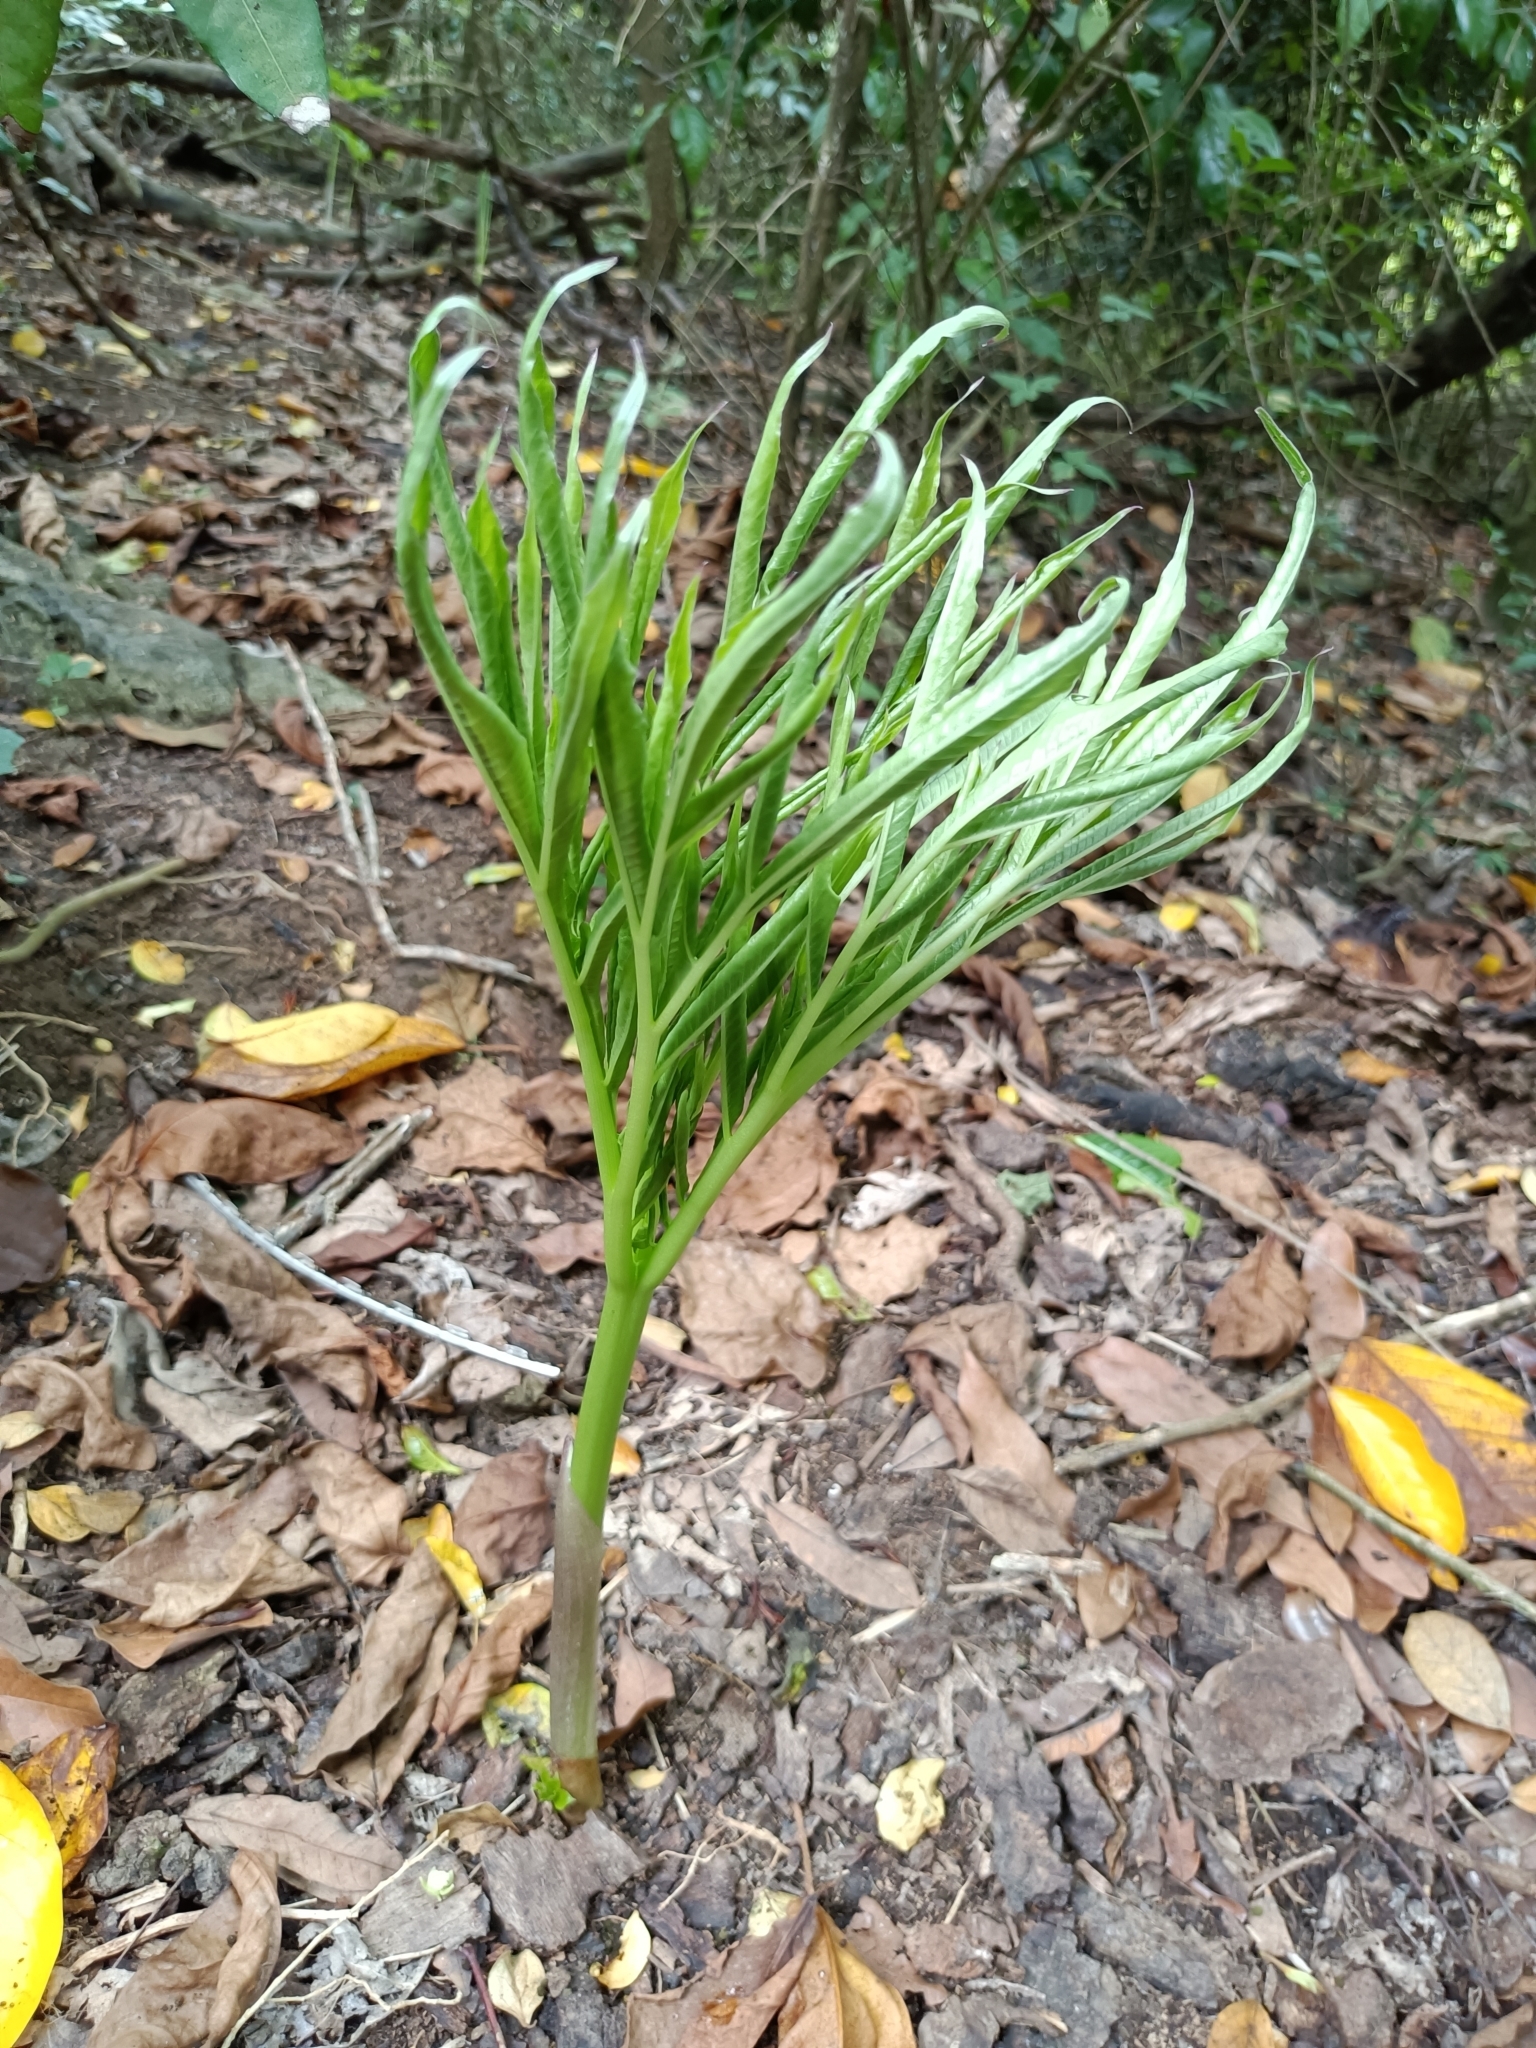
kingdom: Plantae
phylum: Tracheophyta
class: Liliopsida
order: Alismatales
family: Araceae
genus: Amorphophallus
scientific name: Amorphophallus henryi
